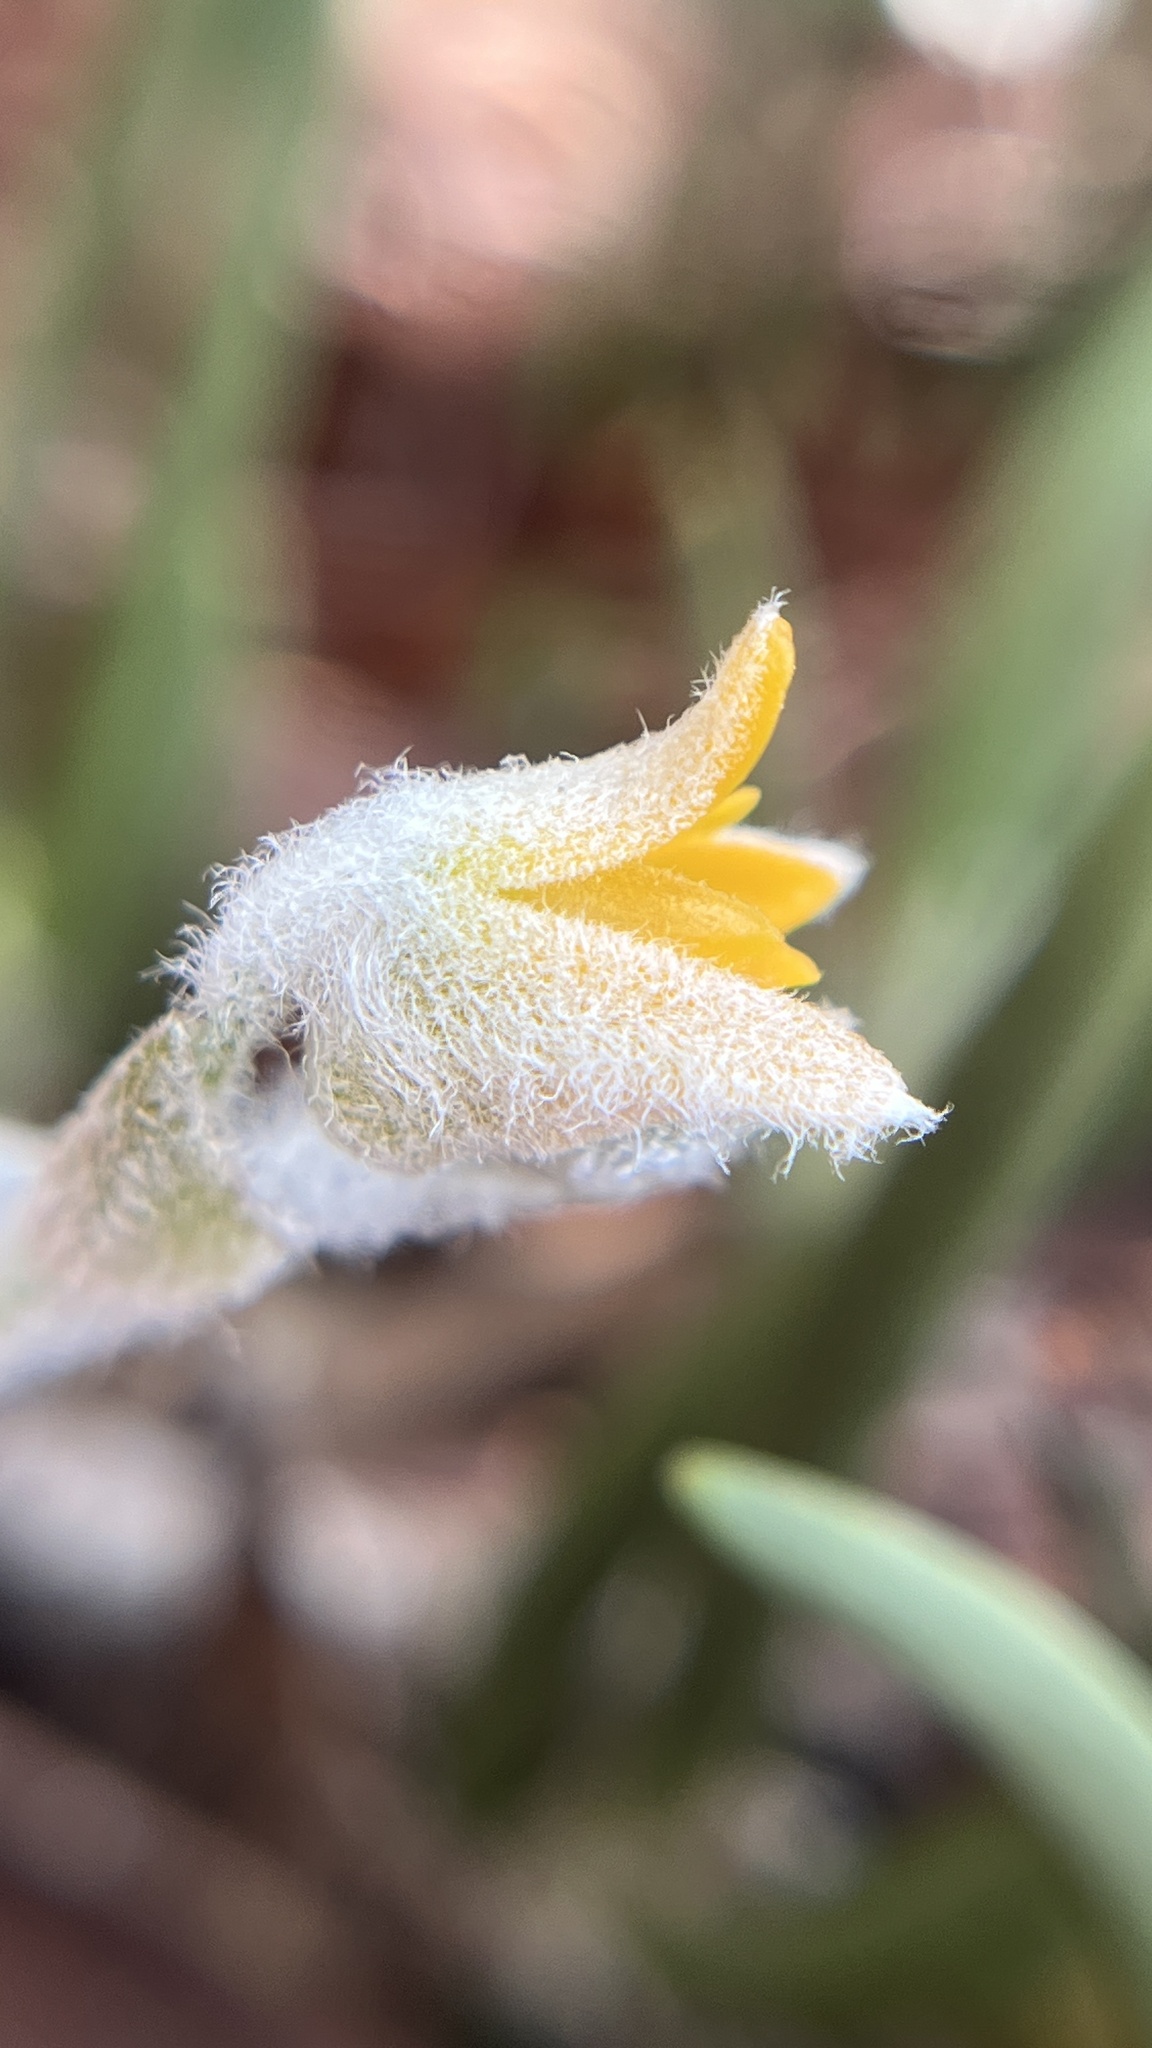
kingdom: Plantae
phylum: Tracheophyta
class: Liliopsida
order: Asparagales
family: Orchidaceae
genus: Strongyleria
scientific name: Strongyleria pannea
